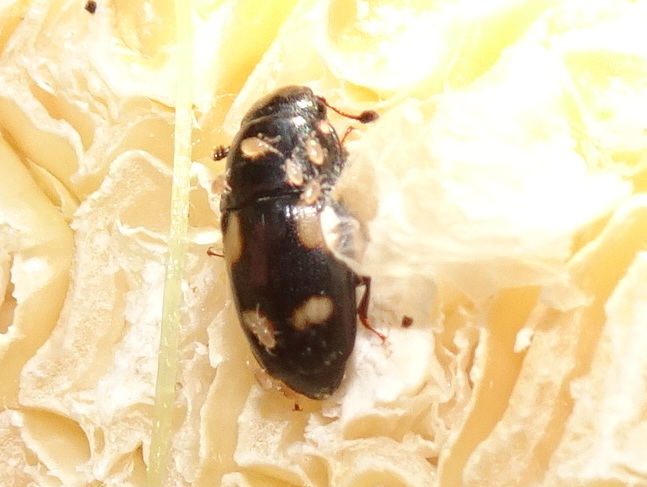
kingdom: Animalia
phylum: Arthropoda
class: Insecta
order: Coleoptera
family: Nitidulidae
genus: Glischrochilus
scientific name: Glischrochilus quadrisignatus
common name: Picnic beetle
